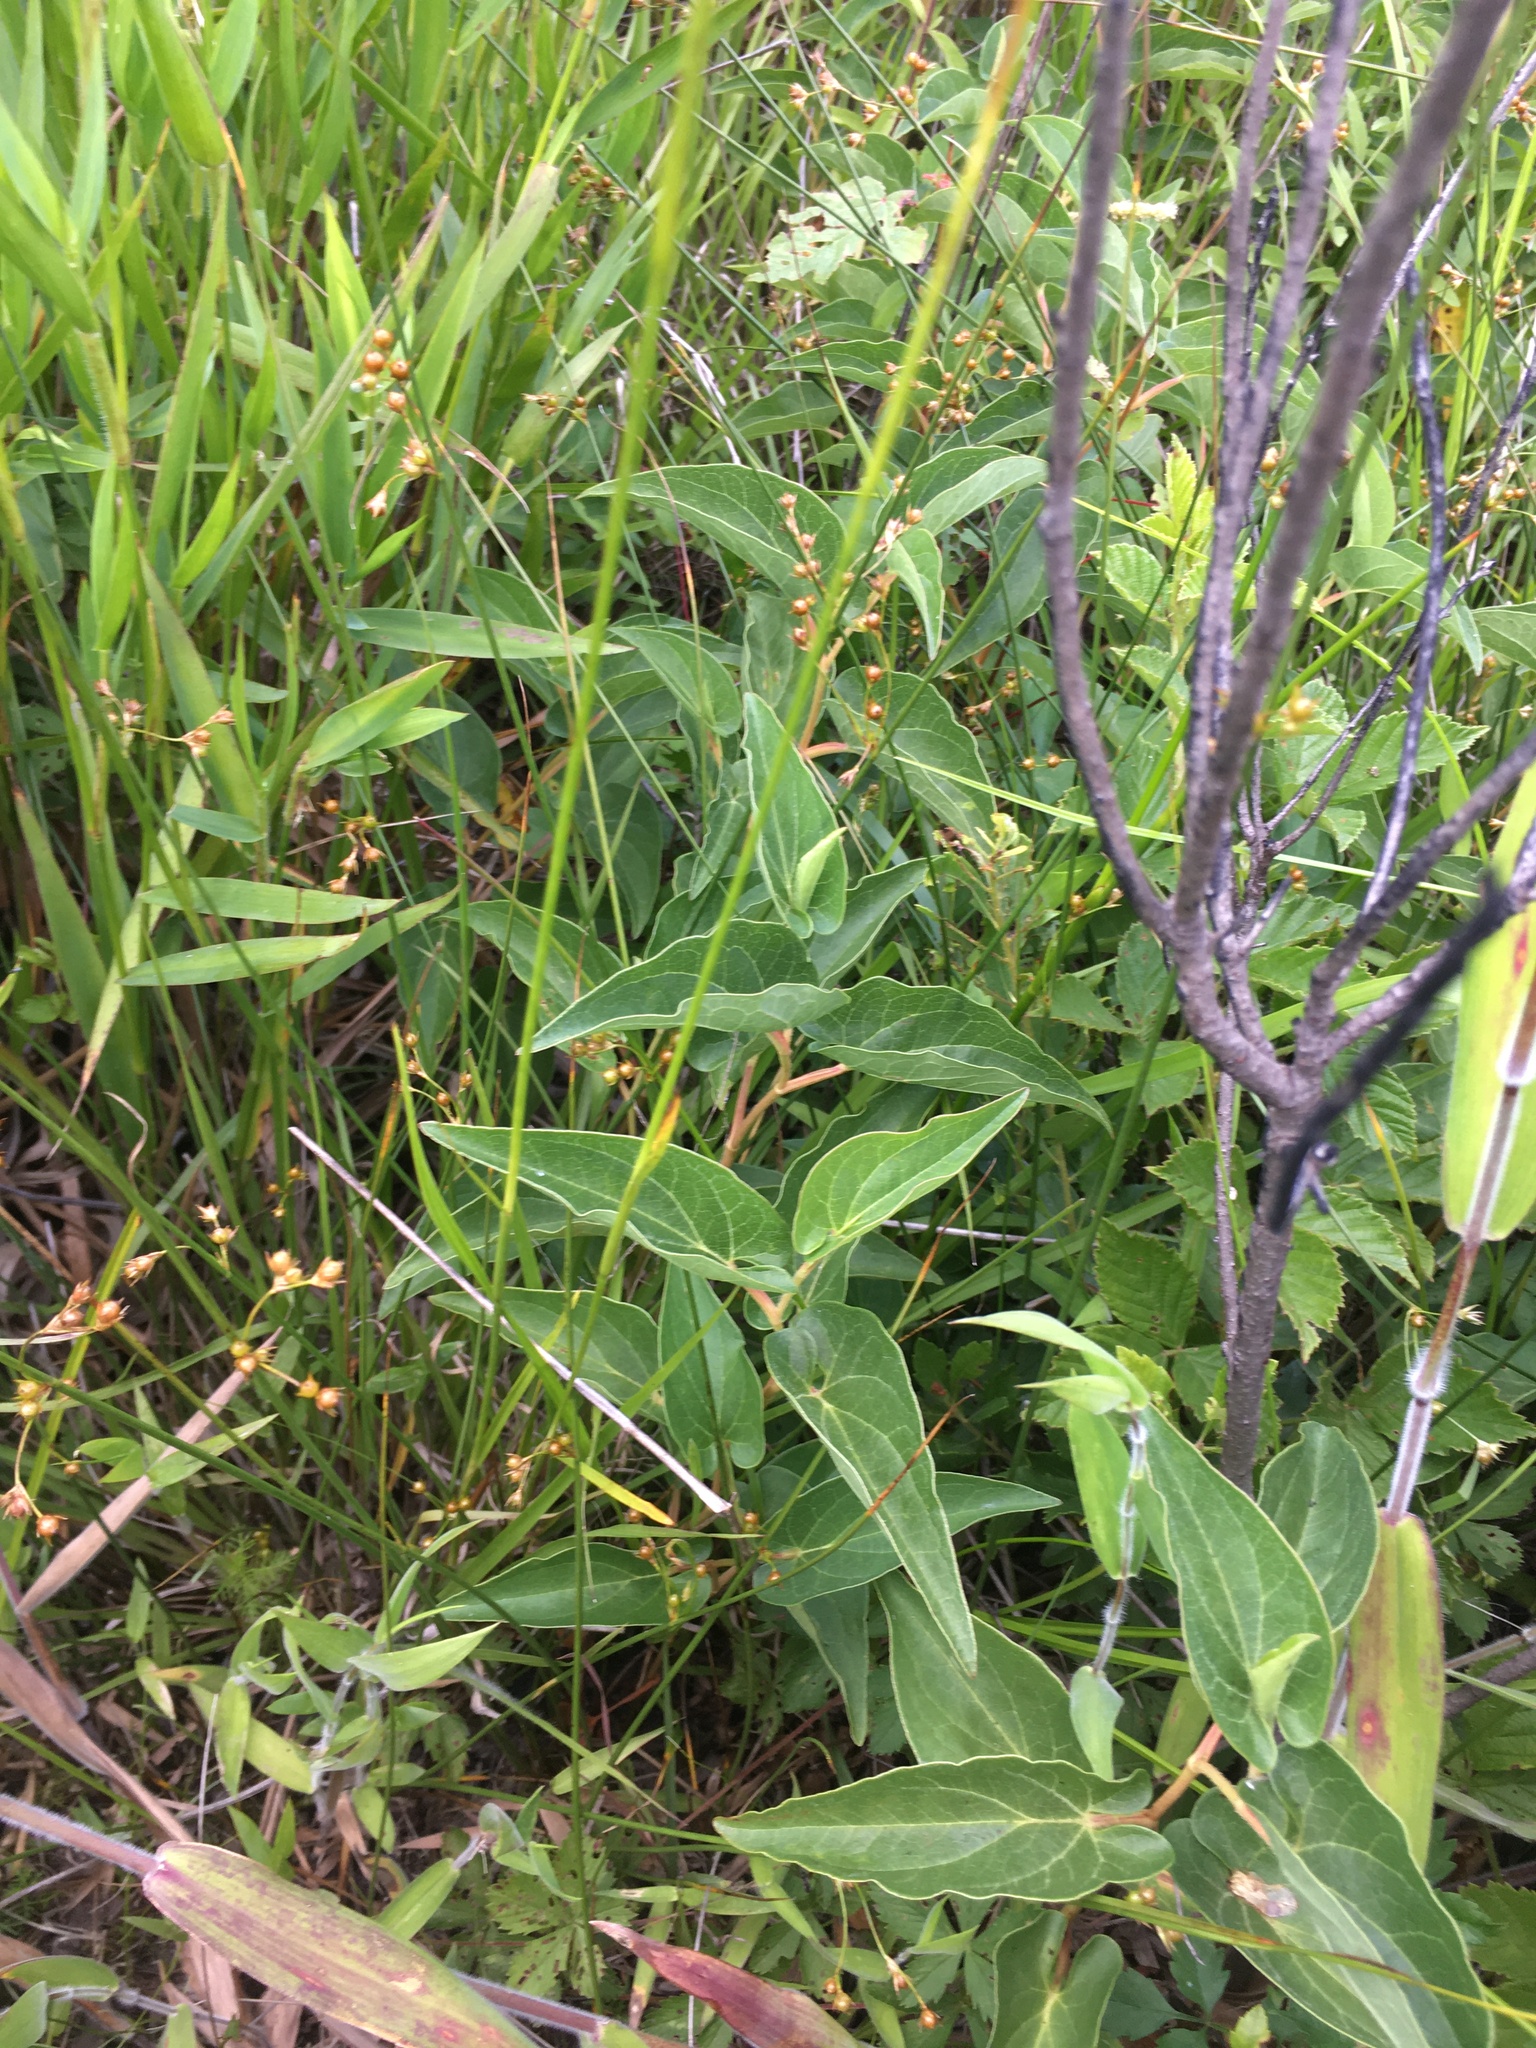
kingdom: Plantae
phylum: Tracheophyta
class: Magnoliopsida
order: Piperales
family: Saururaceae
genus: Saururus
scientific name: Saururus cernuus
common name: Lizard's-tail
